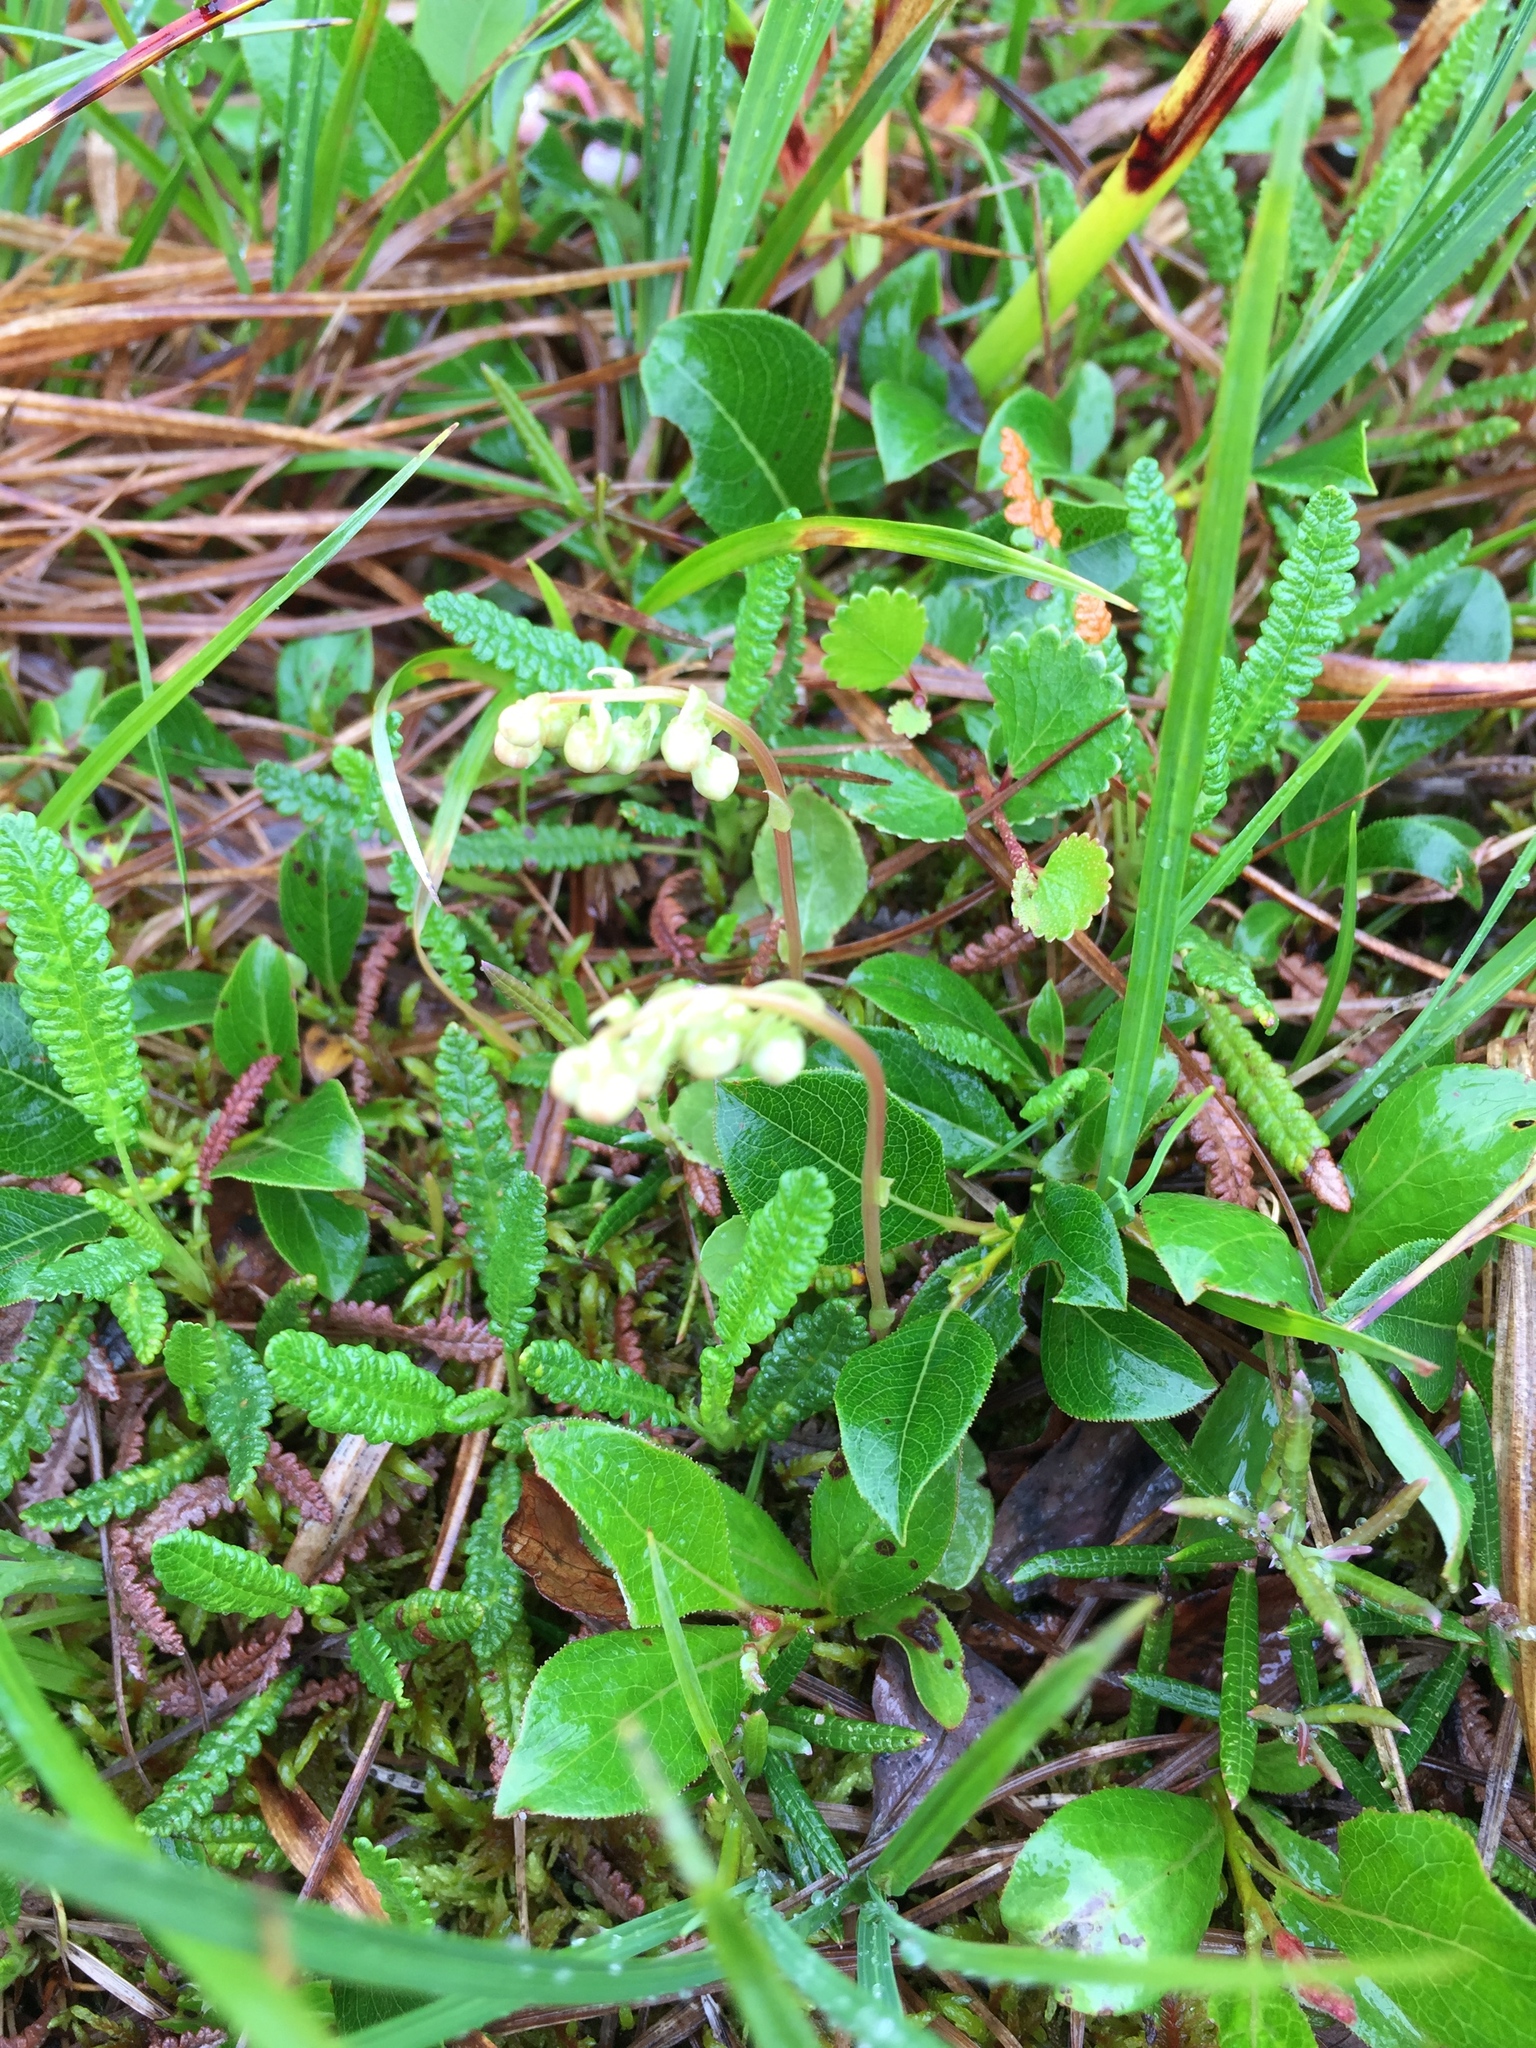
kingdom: Plantae
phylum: Tracheophyta
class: Magnoliopsida
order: Ericales
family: Ericaceae
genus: Orthilia
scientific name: Orthilia secunda
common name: One-sided orthilia
